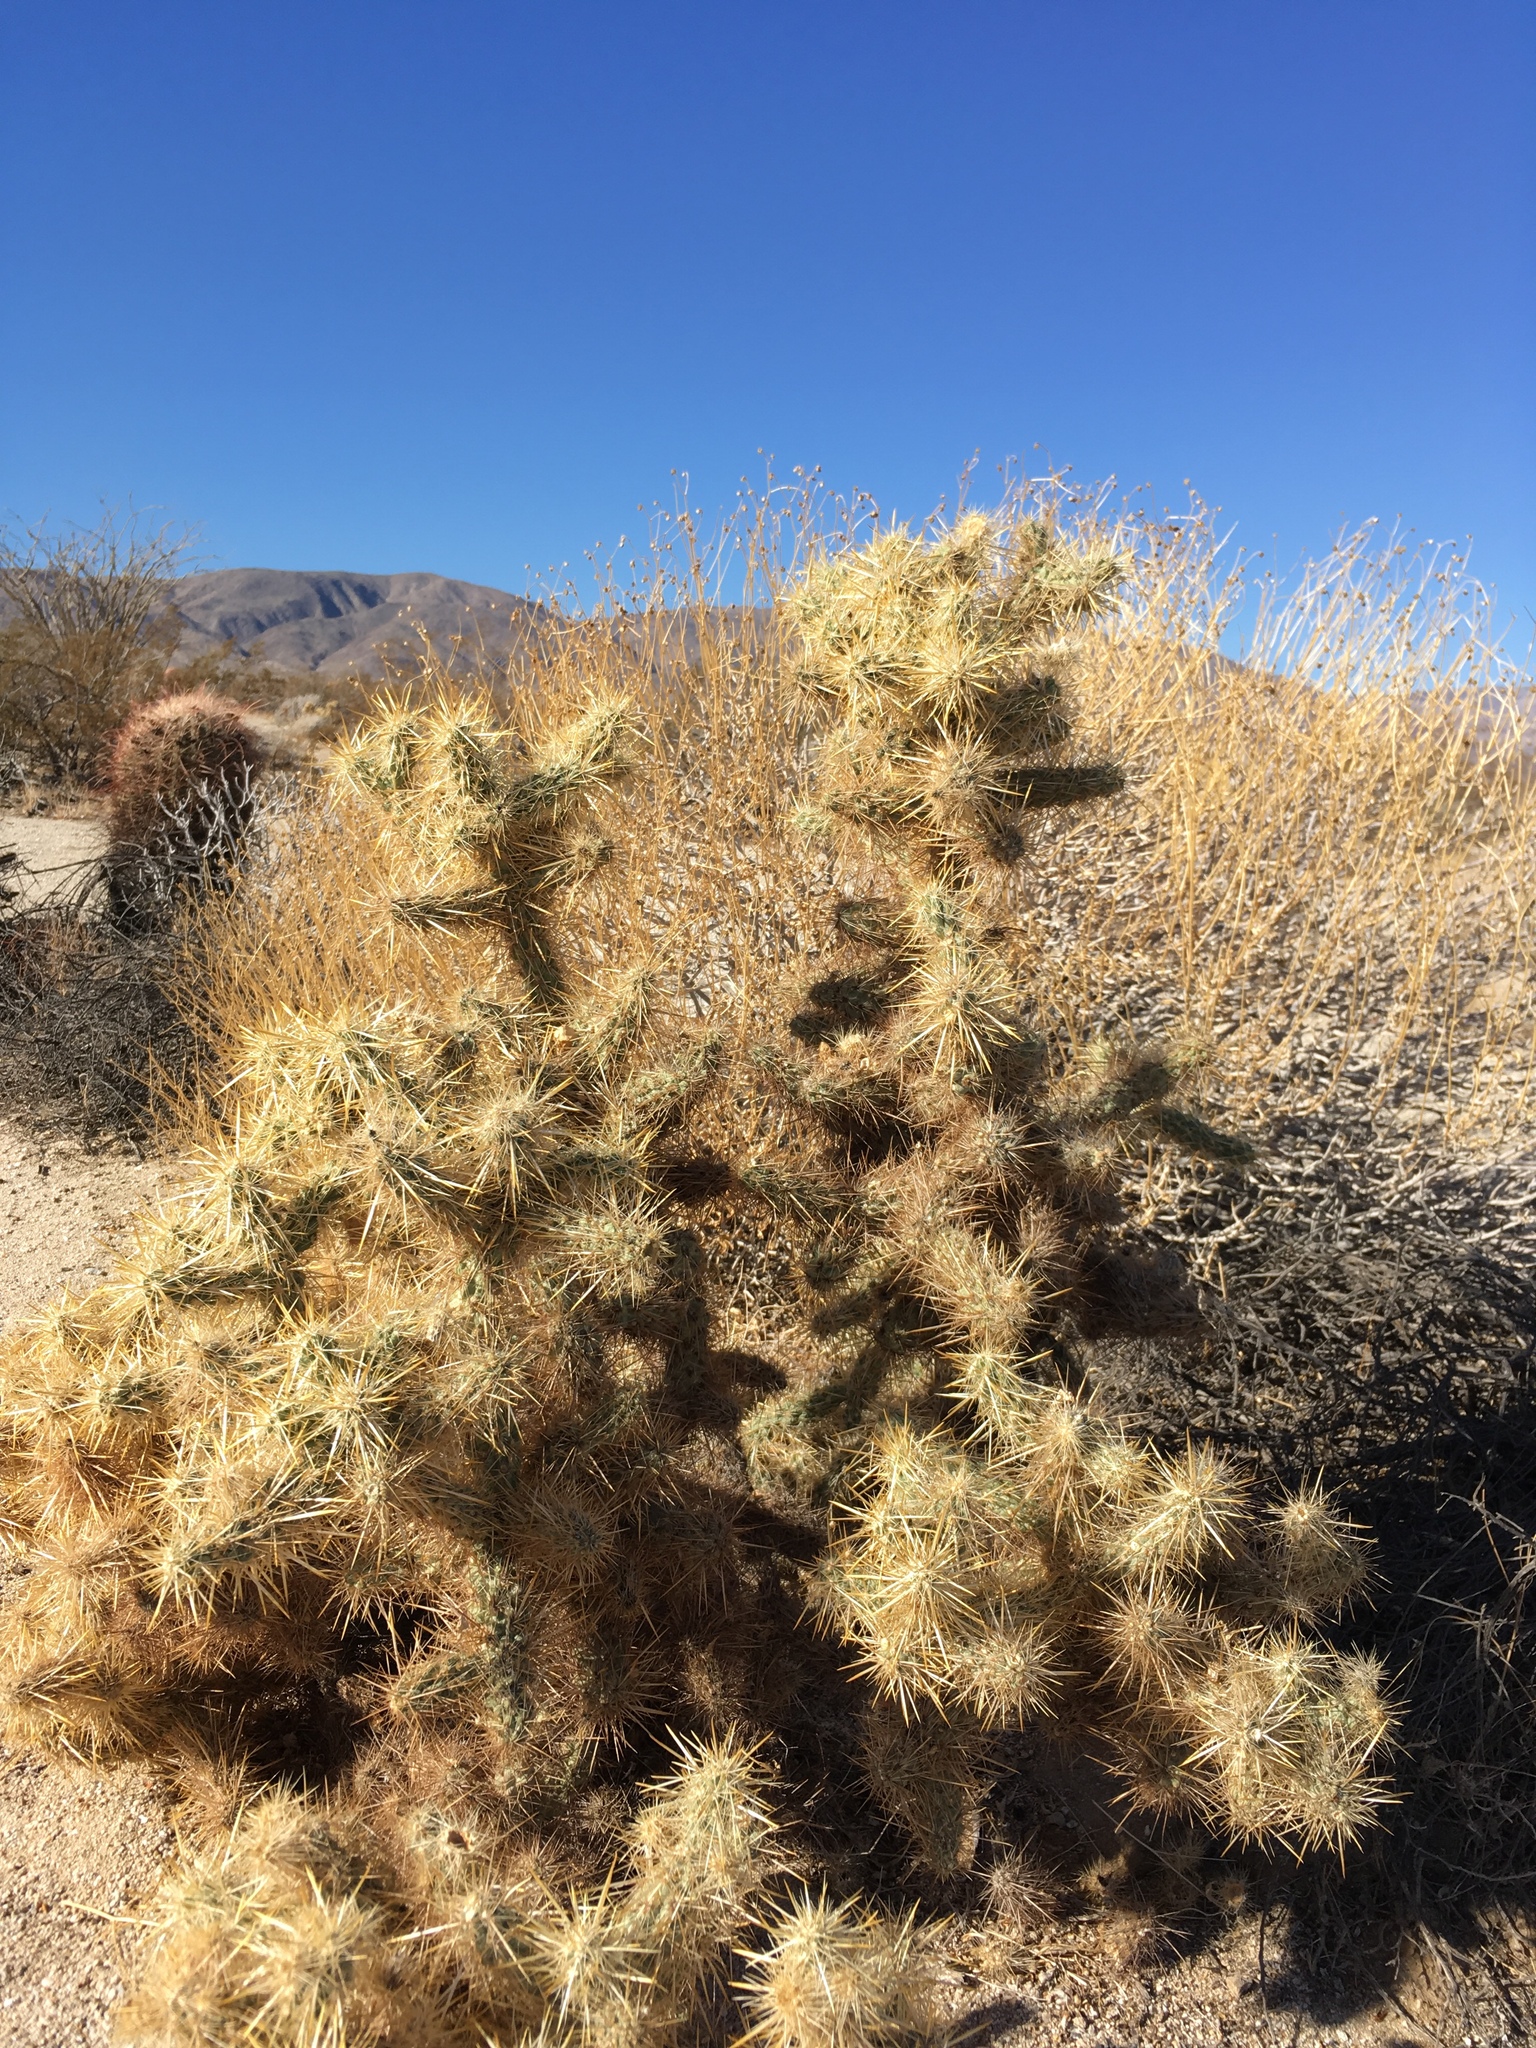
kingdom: Plantae
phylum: Tracheophyta
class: Magnoliopsida
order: Caryophyllales
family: Cactaceae
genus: Cylindropuntia
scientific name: Cylindropuntia echinocarpa
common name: Ground cholla
